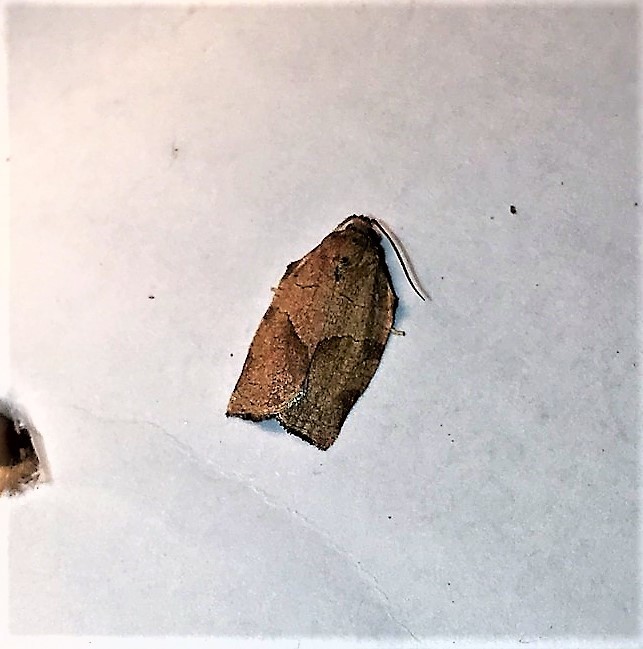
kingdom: Animalia
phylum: Arthropoda
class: Insecta
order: Lepidoptera
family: Tortricidae
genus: Choristoneura
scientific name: Choristoneura rosaceana
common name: Oblique-banded leafroller moth
